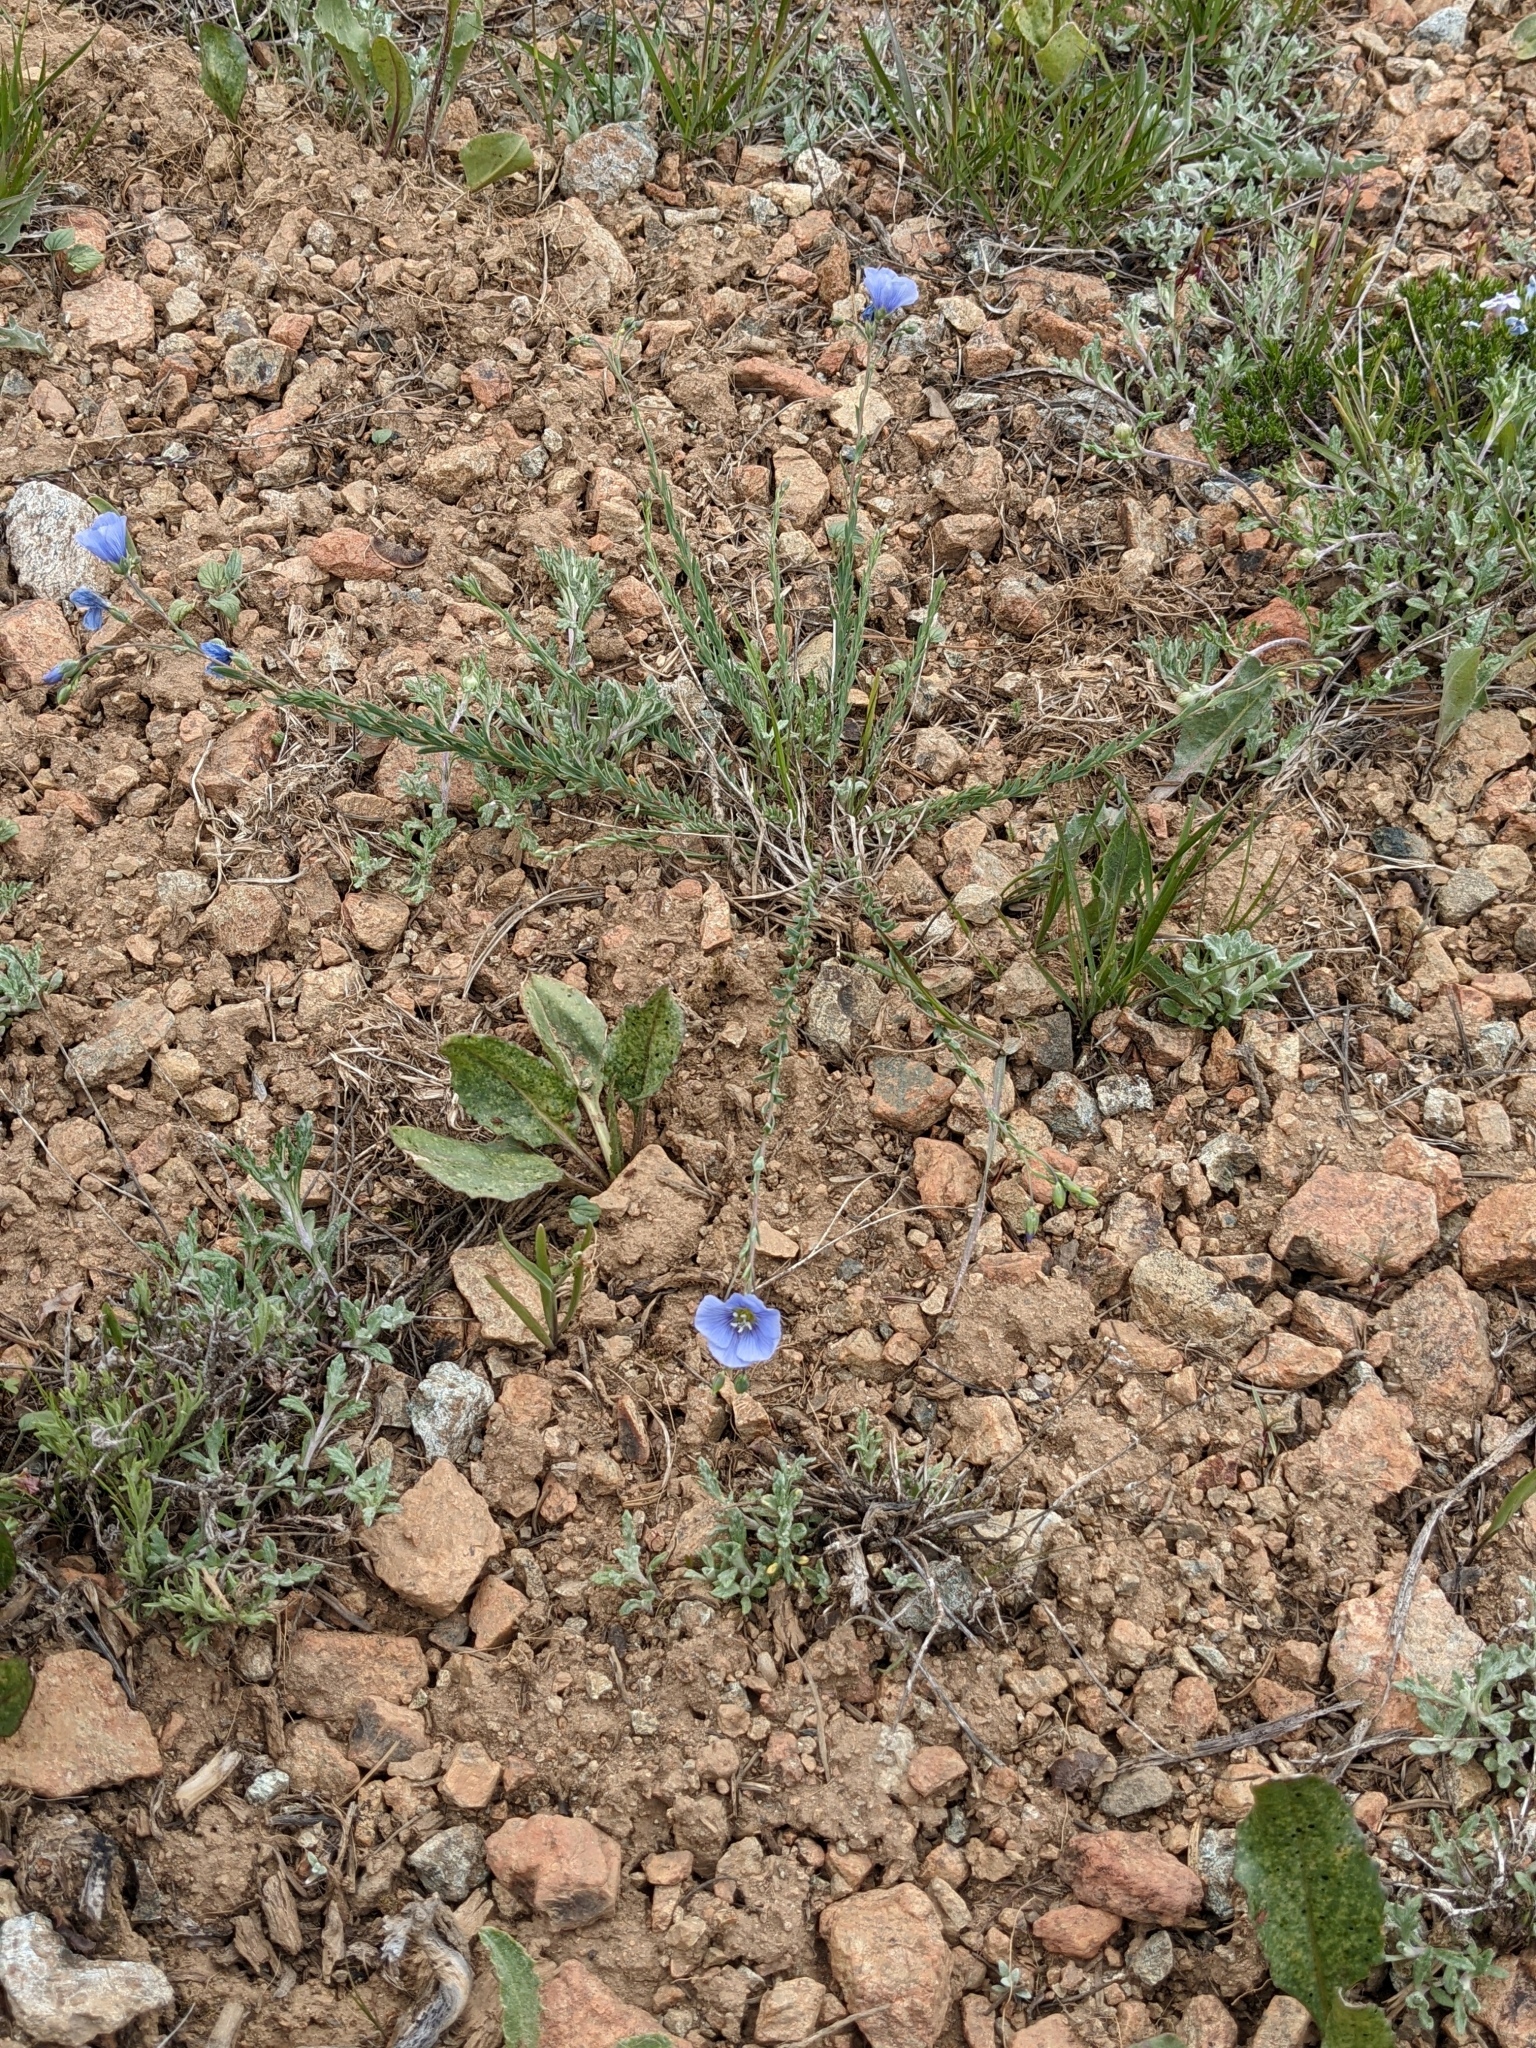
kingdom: Plantae
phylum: Tracheophyta
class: Magnoliopsida
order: Malpighiales
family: Linaceae
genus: Linum
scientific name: Linum lewisii
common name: Prairie flax
